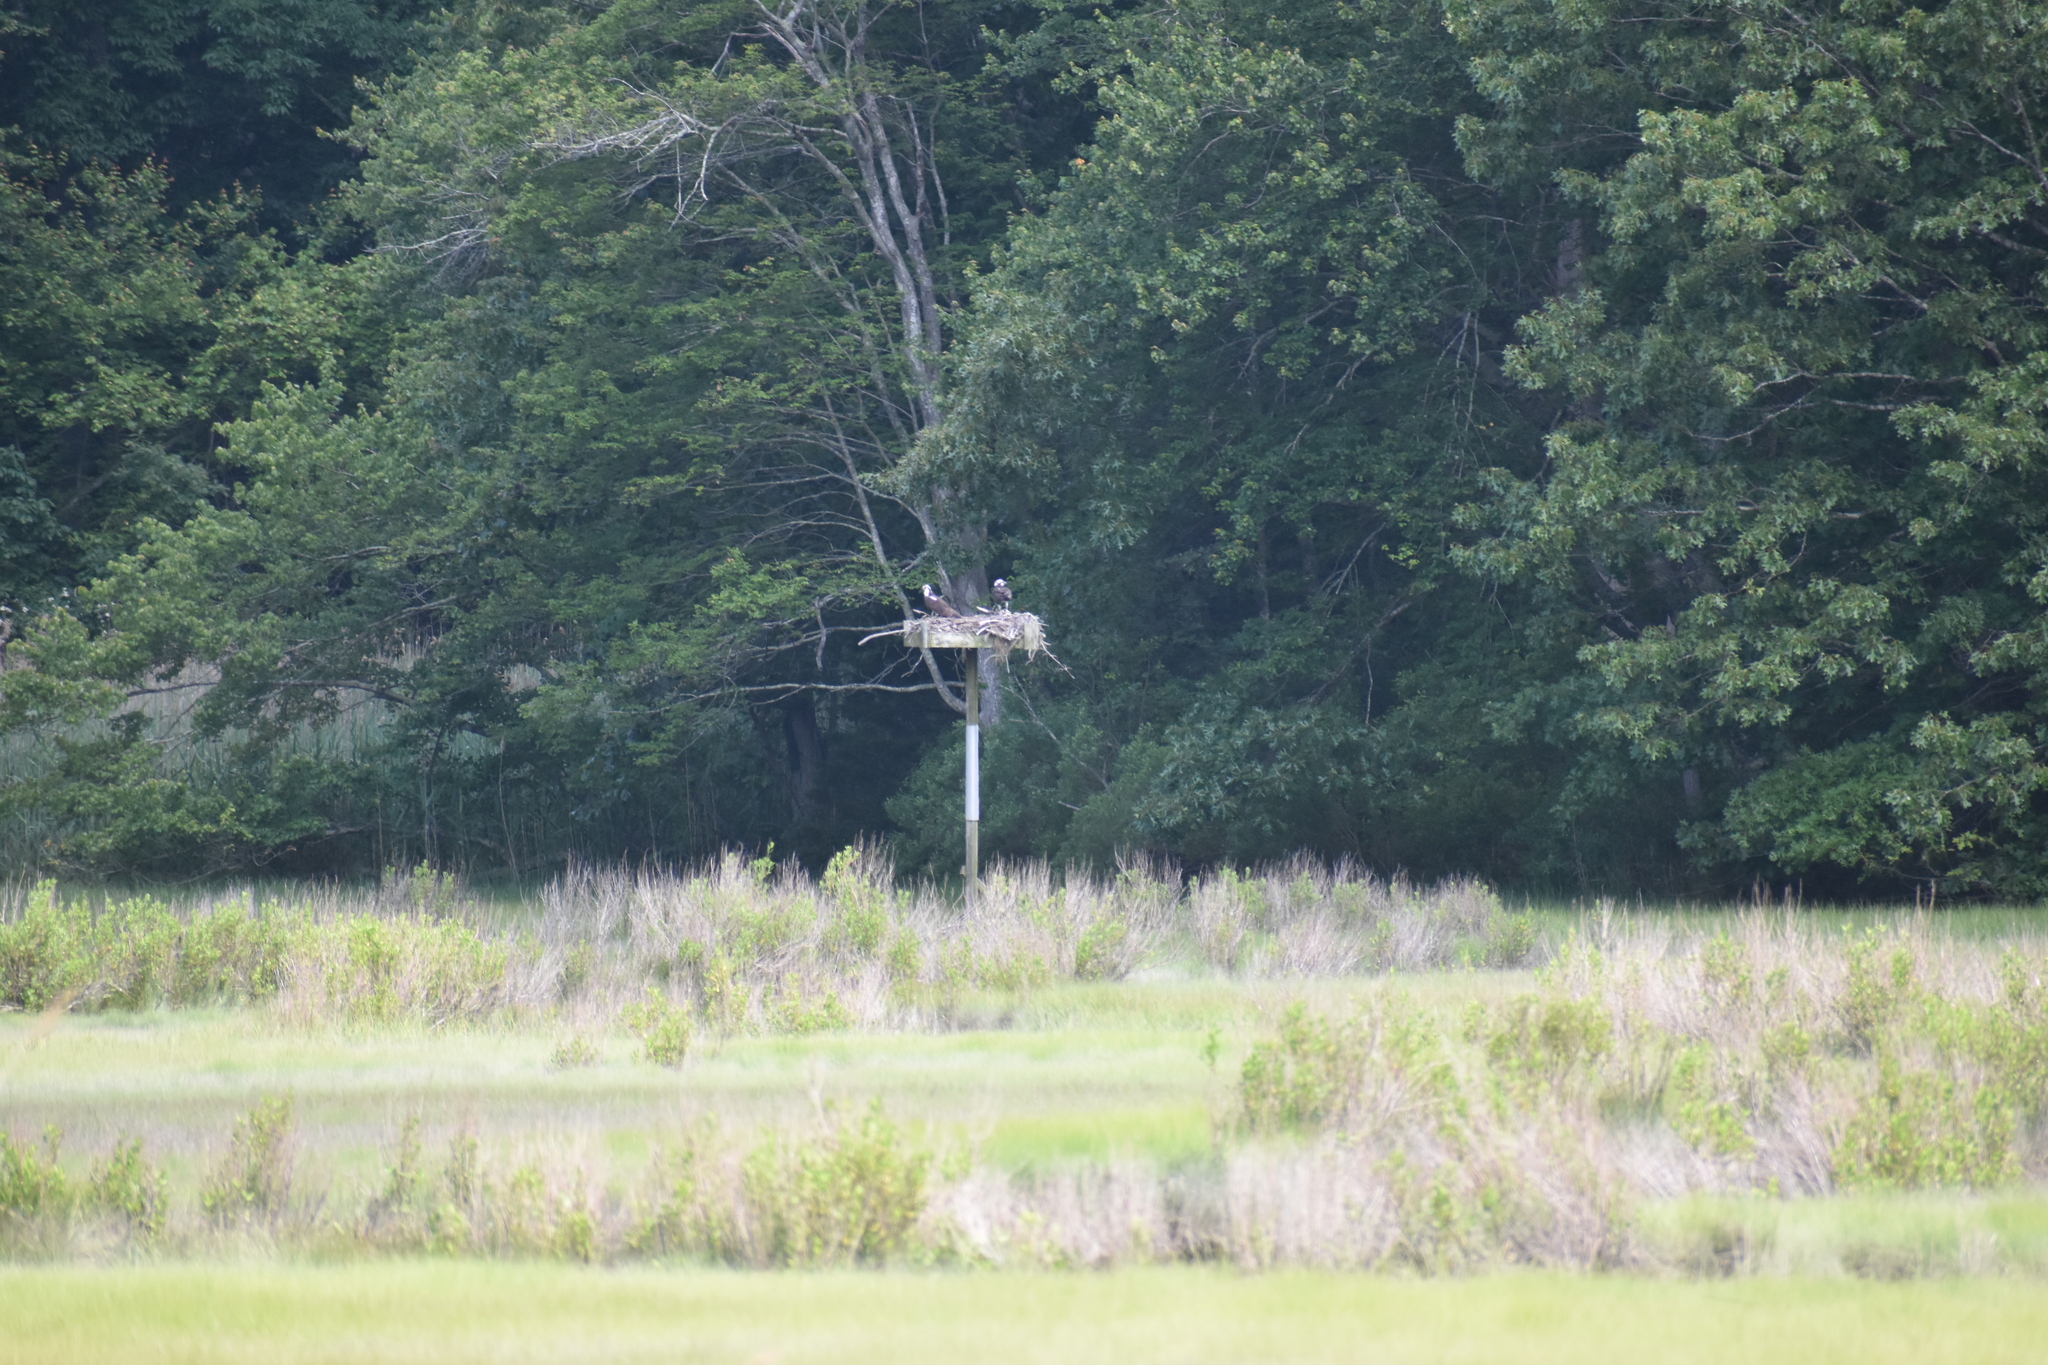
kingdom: Animalia
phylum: Chordata
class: Aves
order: Accipitriformes
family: Pandionidae
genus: Pandion
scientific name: Pandion haliaetus
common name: Osprey
